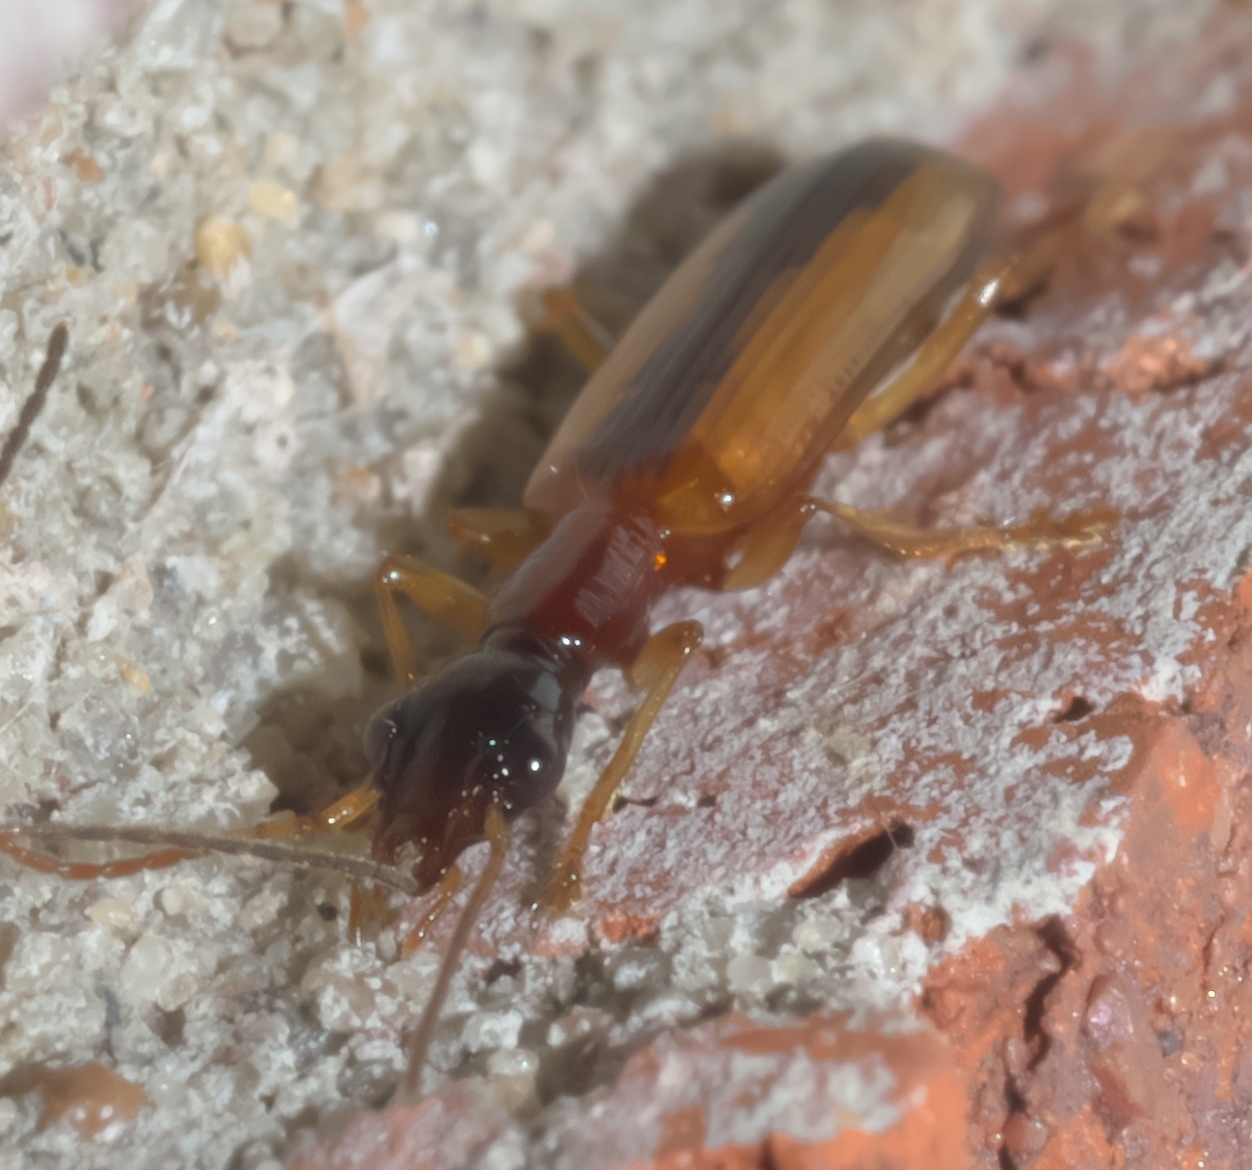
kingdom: Animalia
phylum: Arthropoda
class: Insecta
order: Coleoptera
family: Carabidae
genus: Leptotrachelus
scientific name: Leptotrachelus dorsalis
